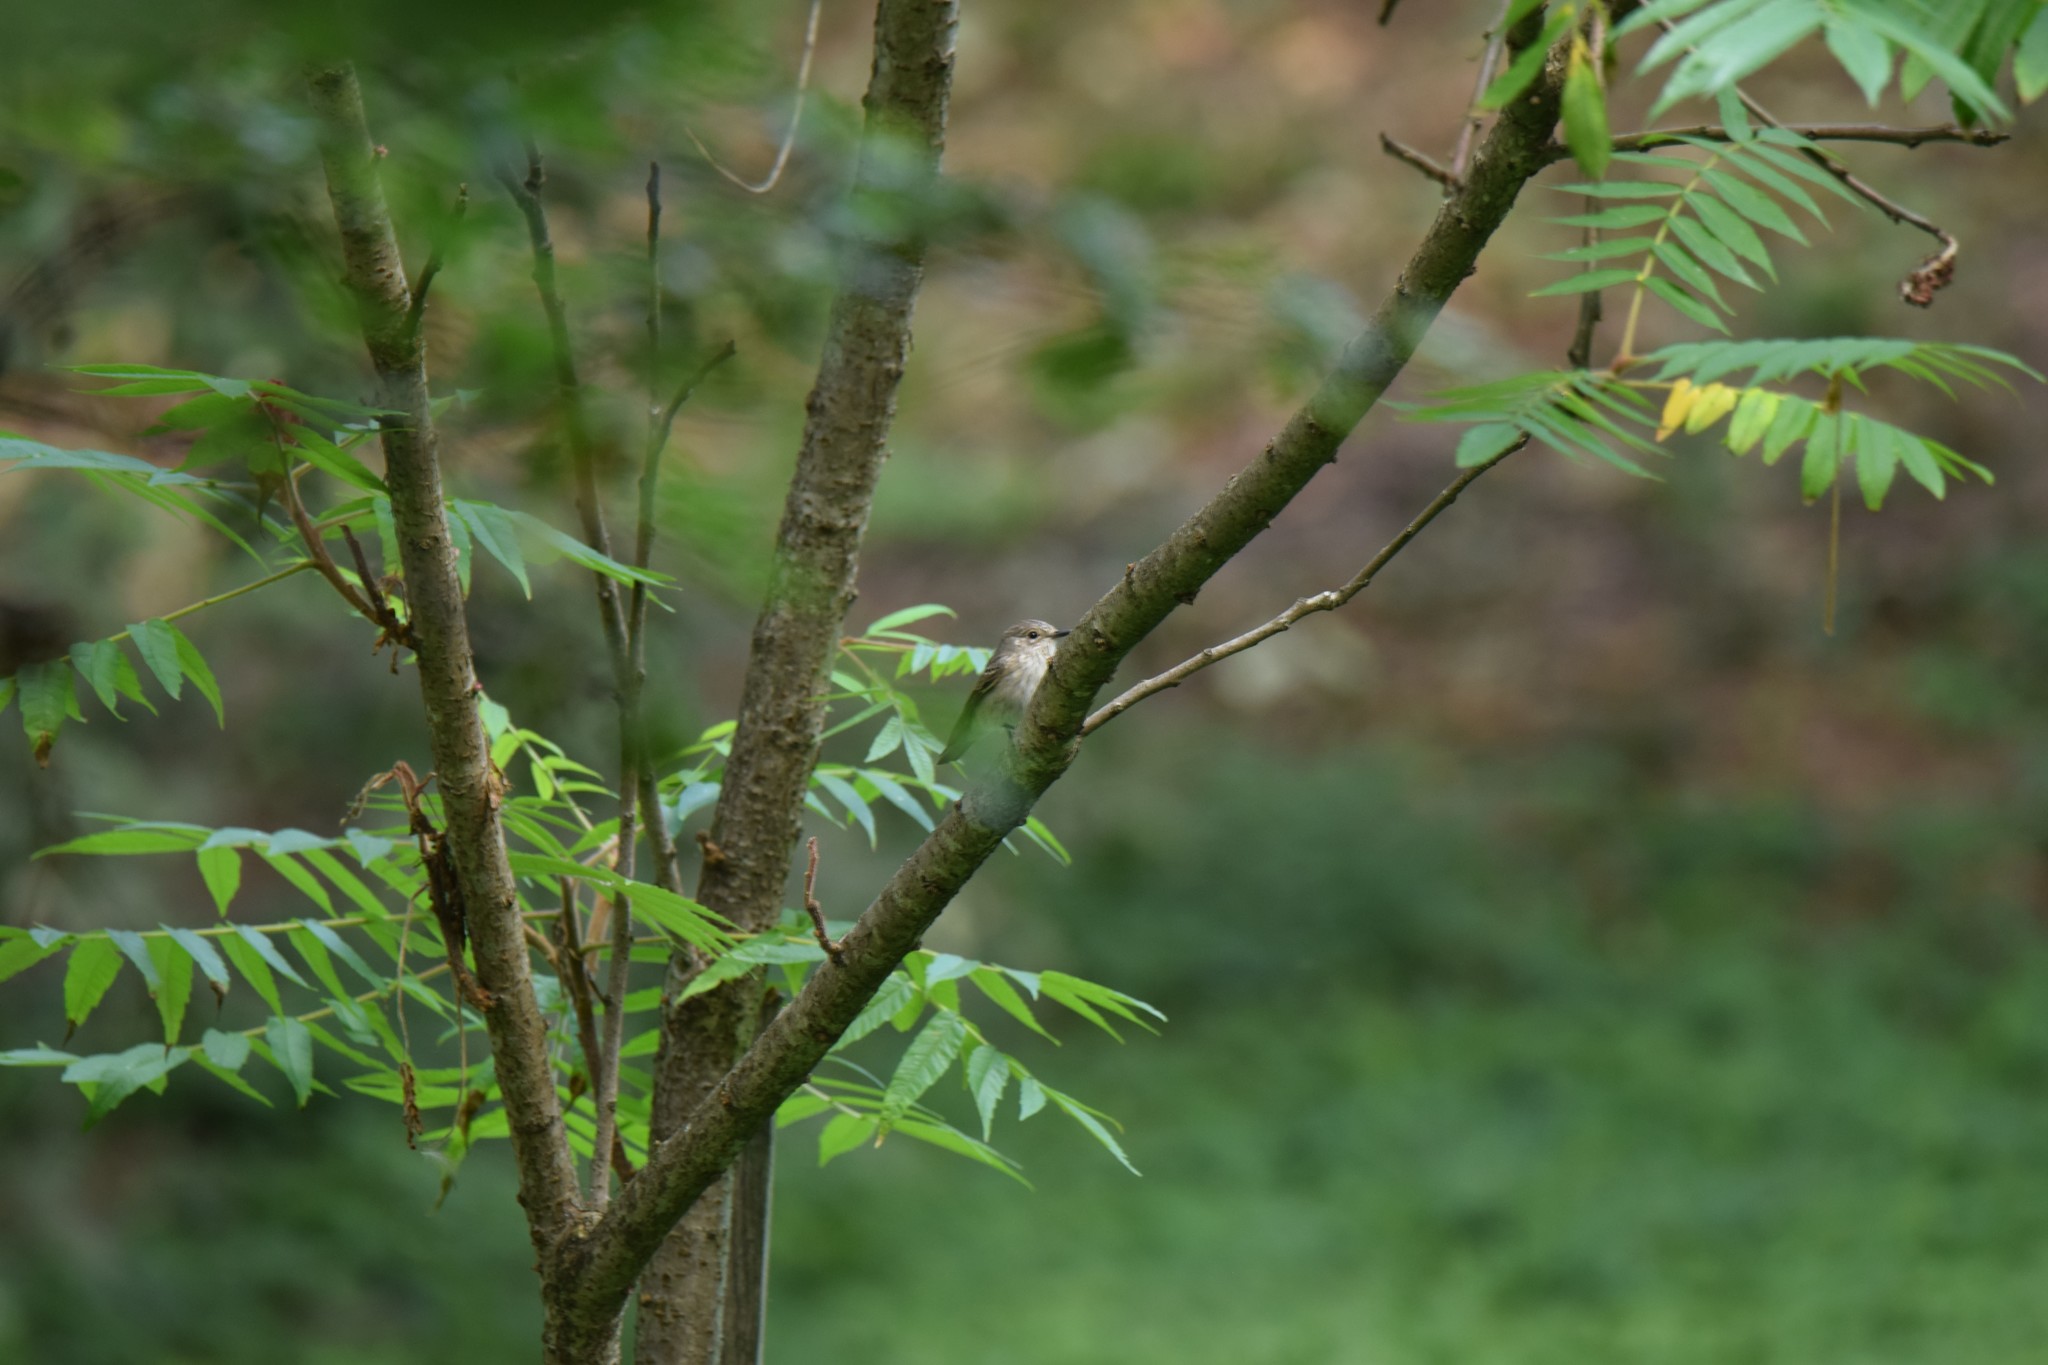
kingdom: Animalia
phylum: Chordata
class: Aves
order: Passeriformes
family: Muscicapidae
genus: Muscicapa
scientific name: Muscicapa striata
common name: Spotted flycatcher
